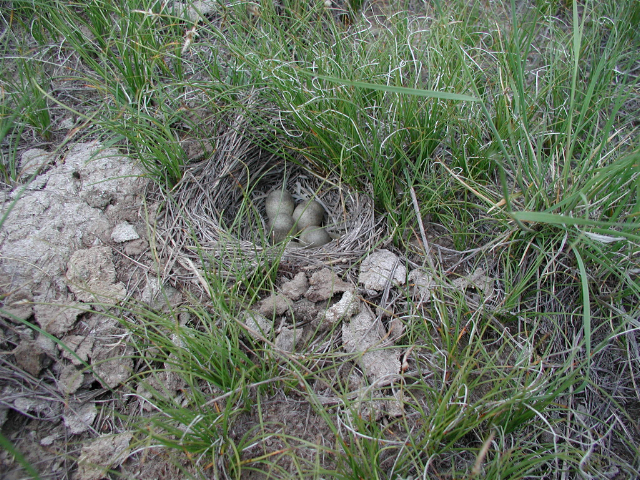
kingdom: Animalia
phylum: Chordata
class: Aves
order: Passeriformes
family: Alaudidae
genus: Eremophila
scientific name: Eremophila alpestris
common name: Horned lark
